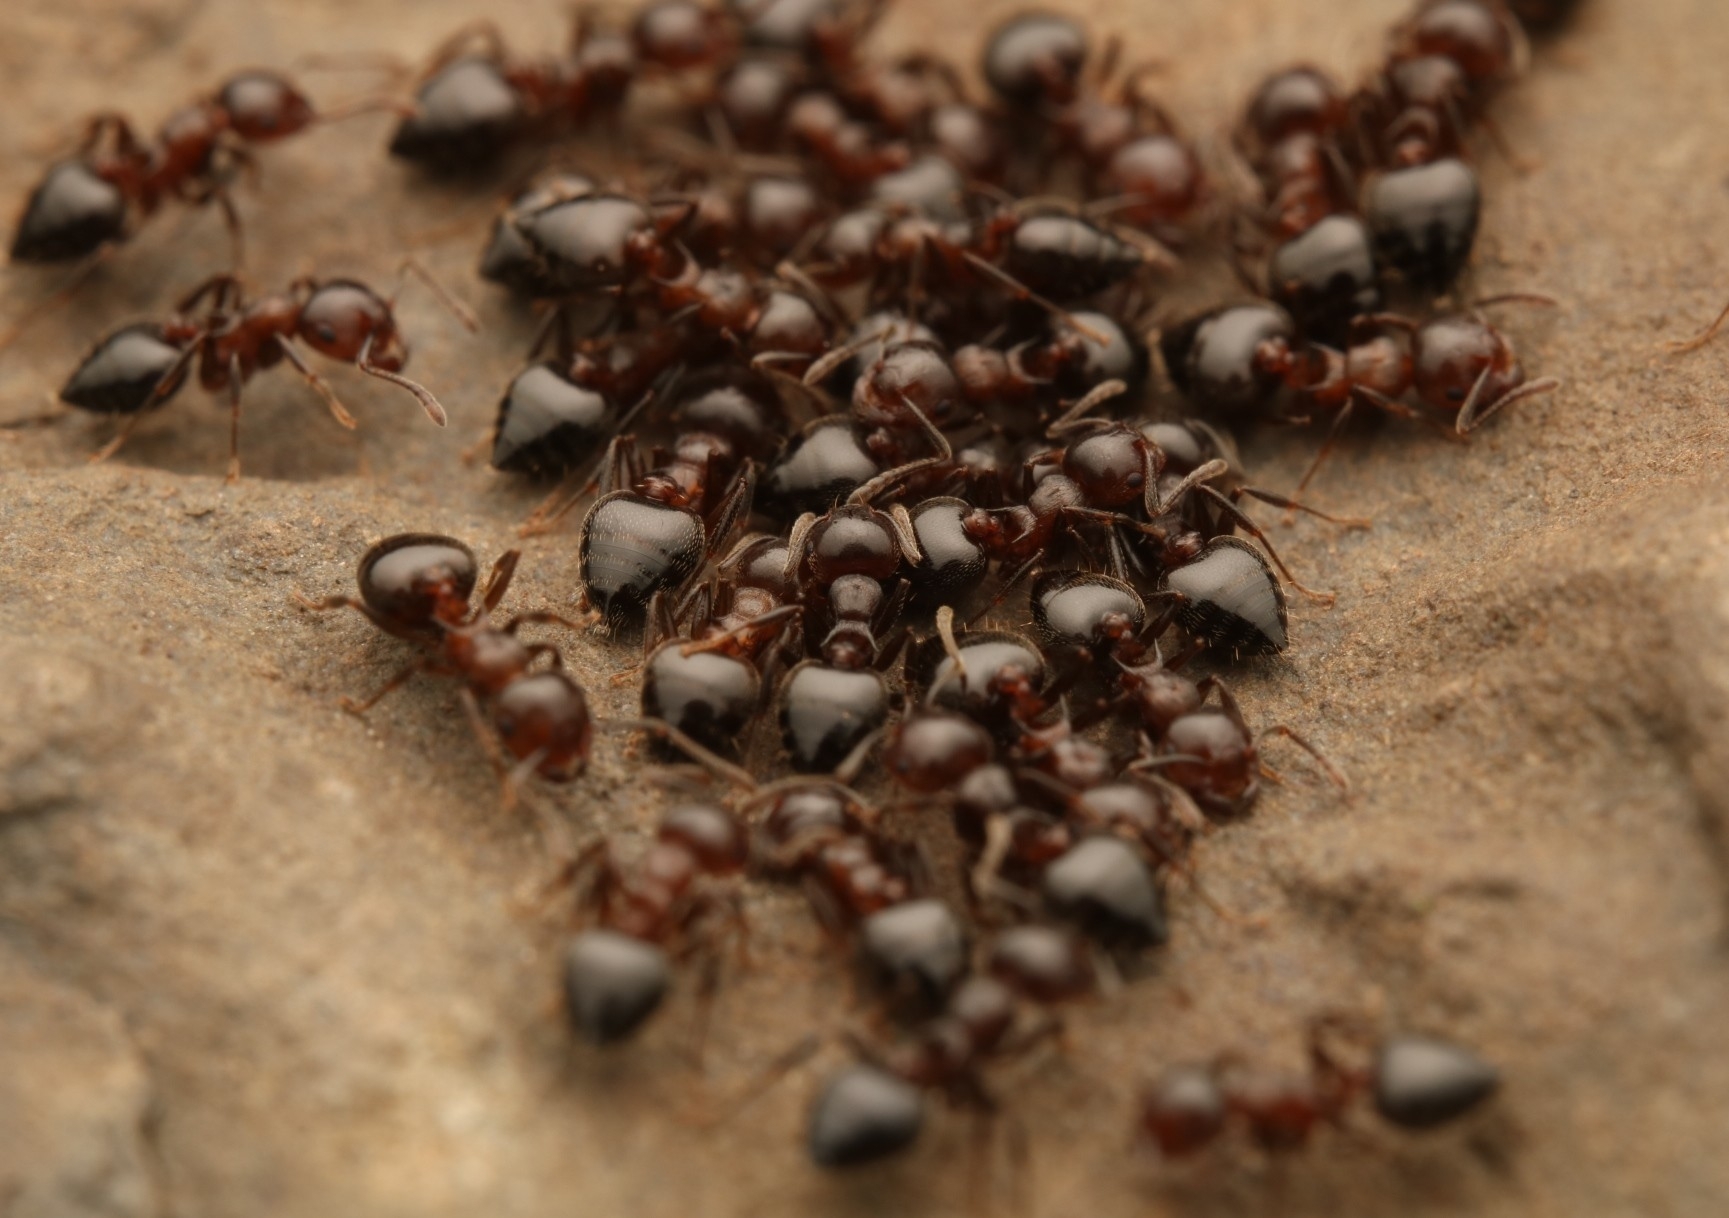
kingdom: Animalia
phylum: Arthropoda
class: Insecta
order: Hymenoptera
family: Formicidae
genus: Crematogaster
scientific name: Crematogaster cerasi
